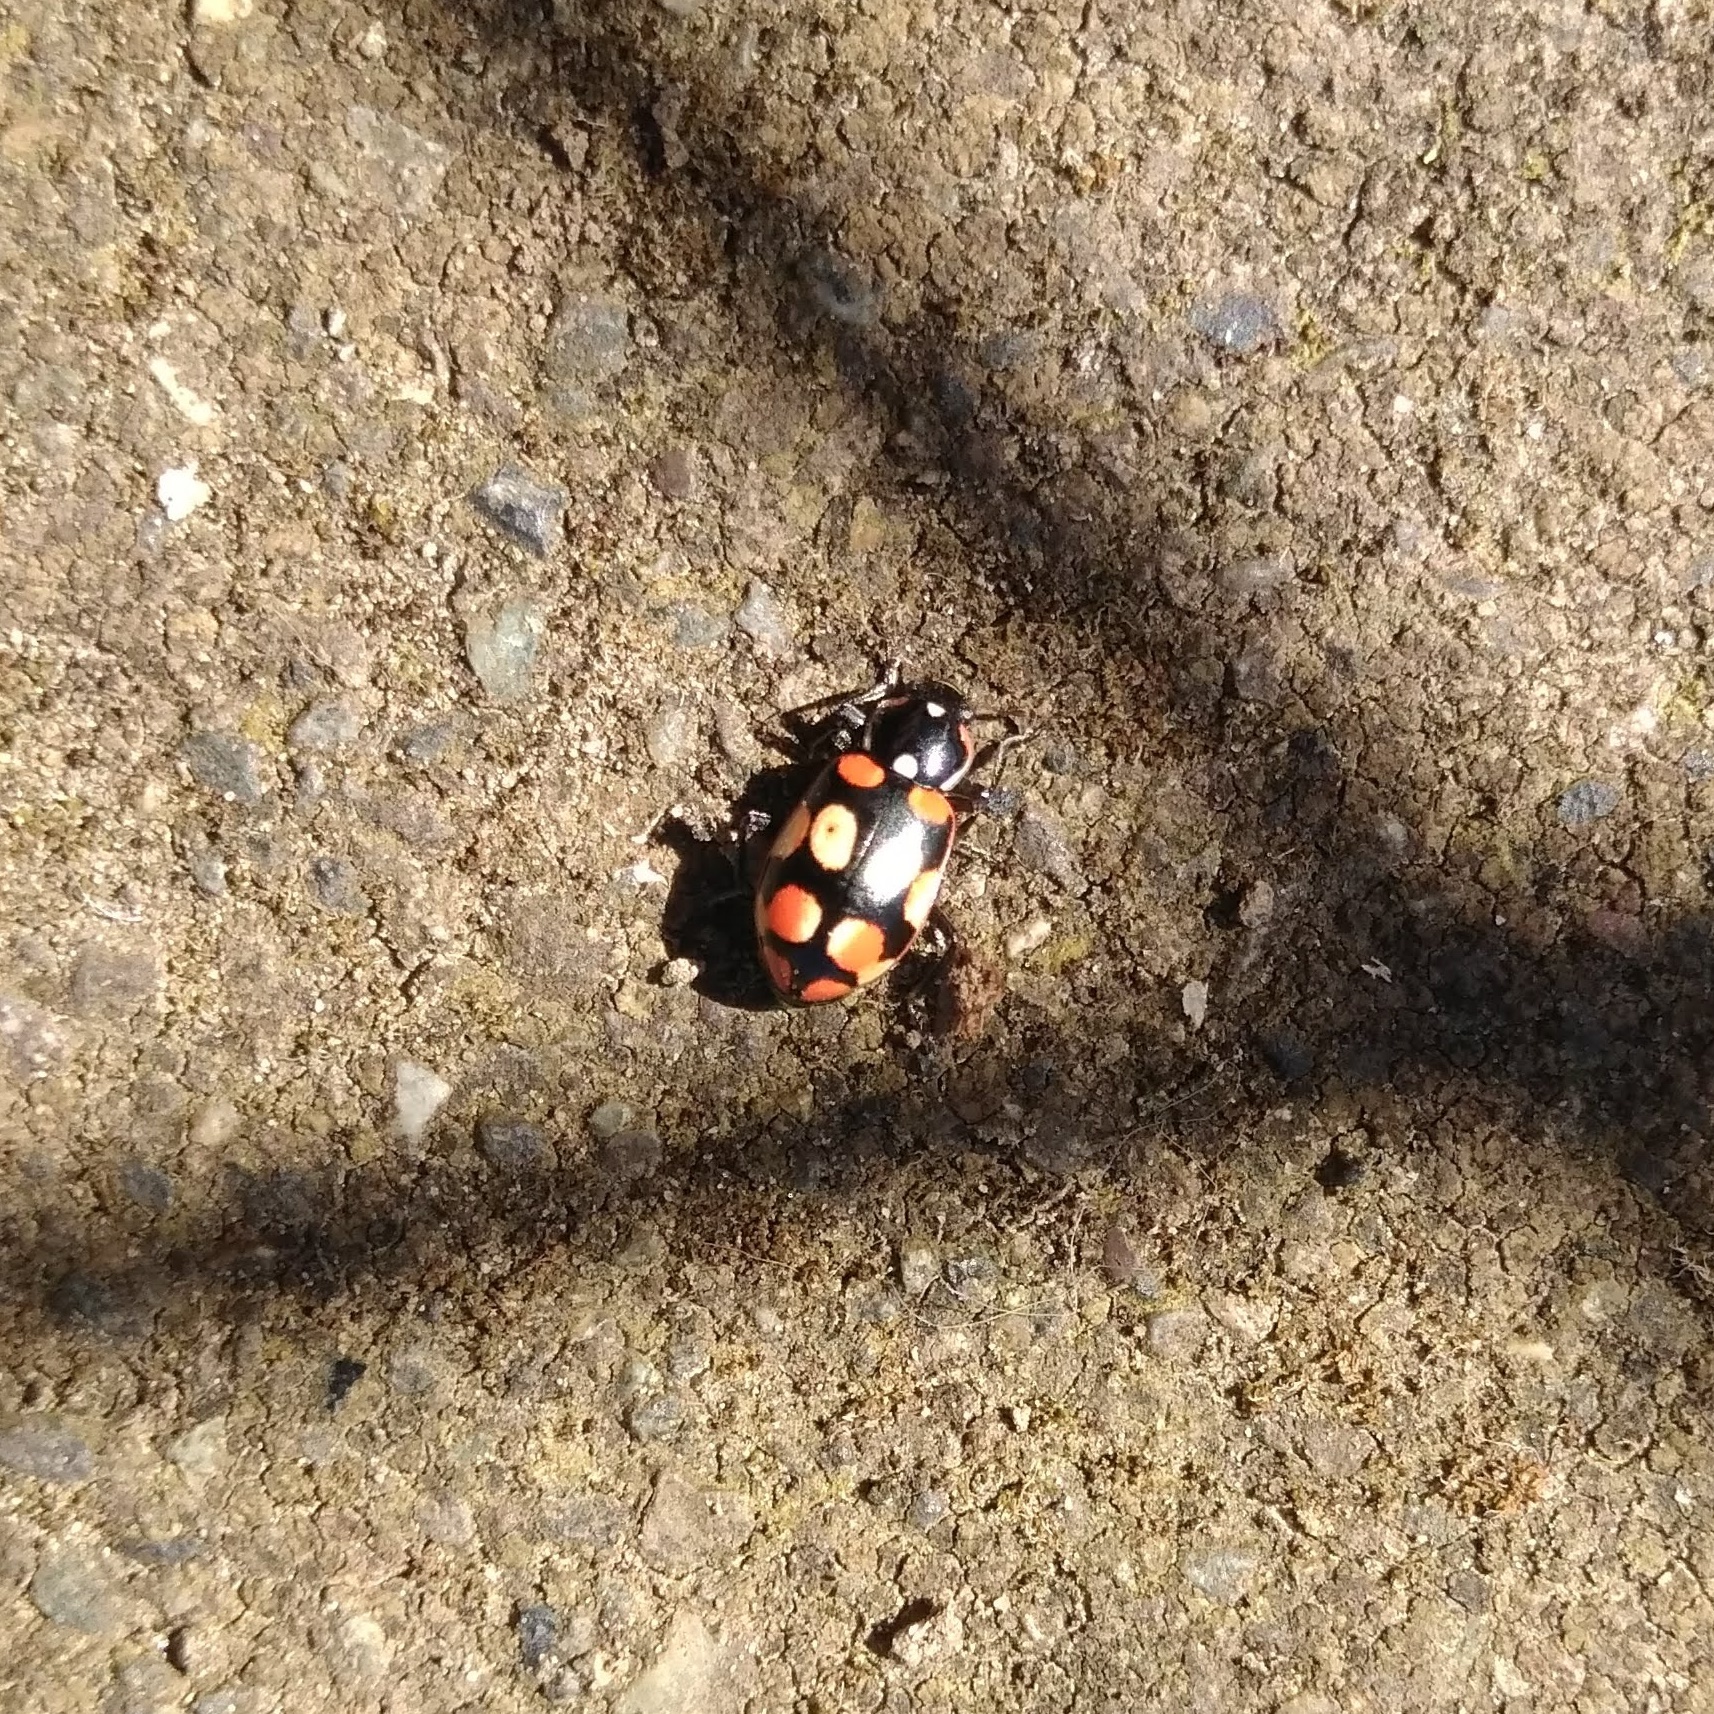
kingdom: Animalia
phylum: Arthropoda
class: Insecta
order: Coleoptera
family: Coccinellidae
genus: Eriopis
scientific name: Eriopis chilensis
